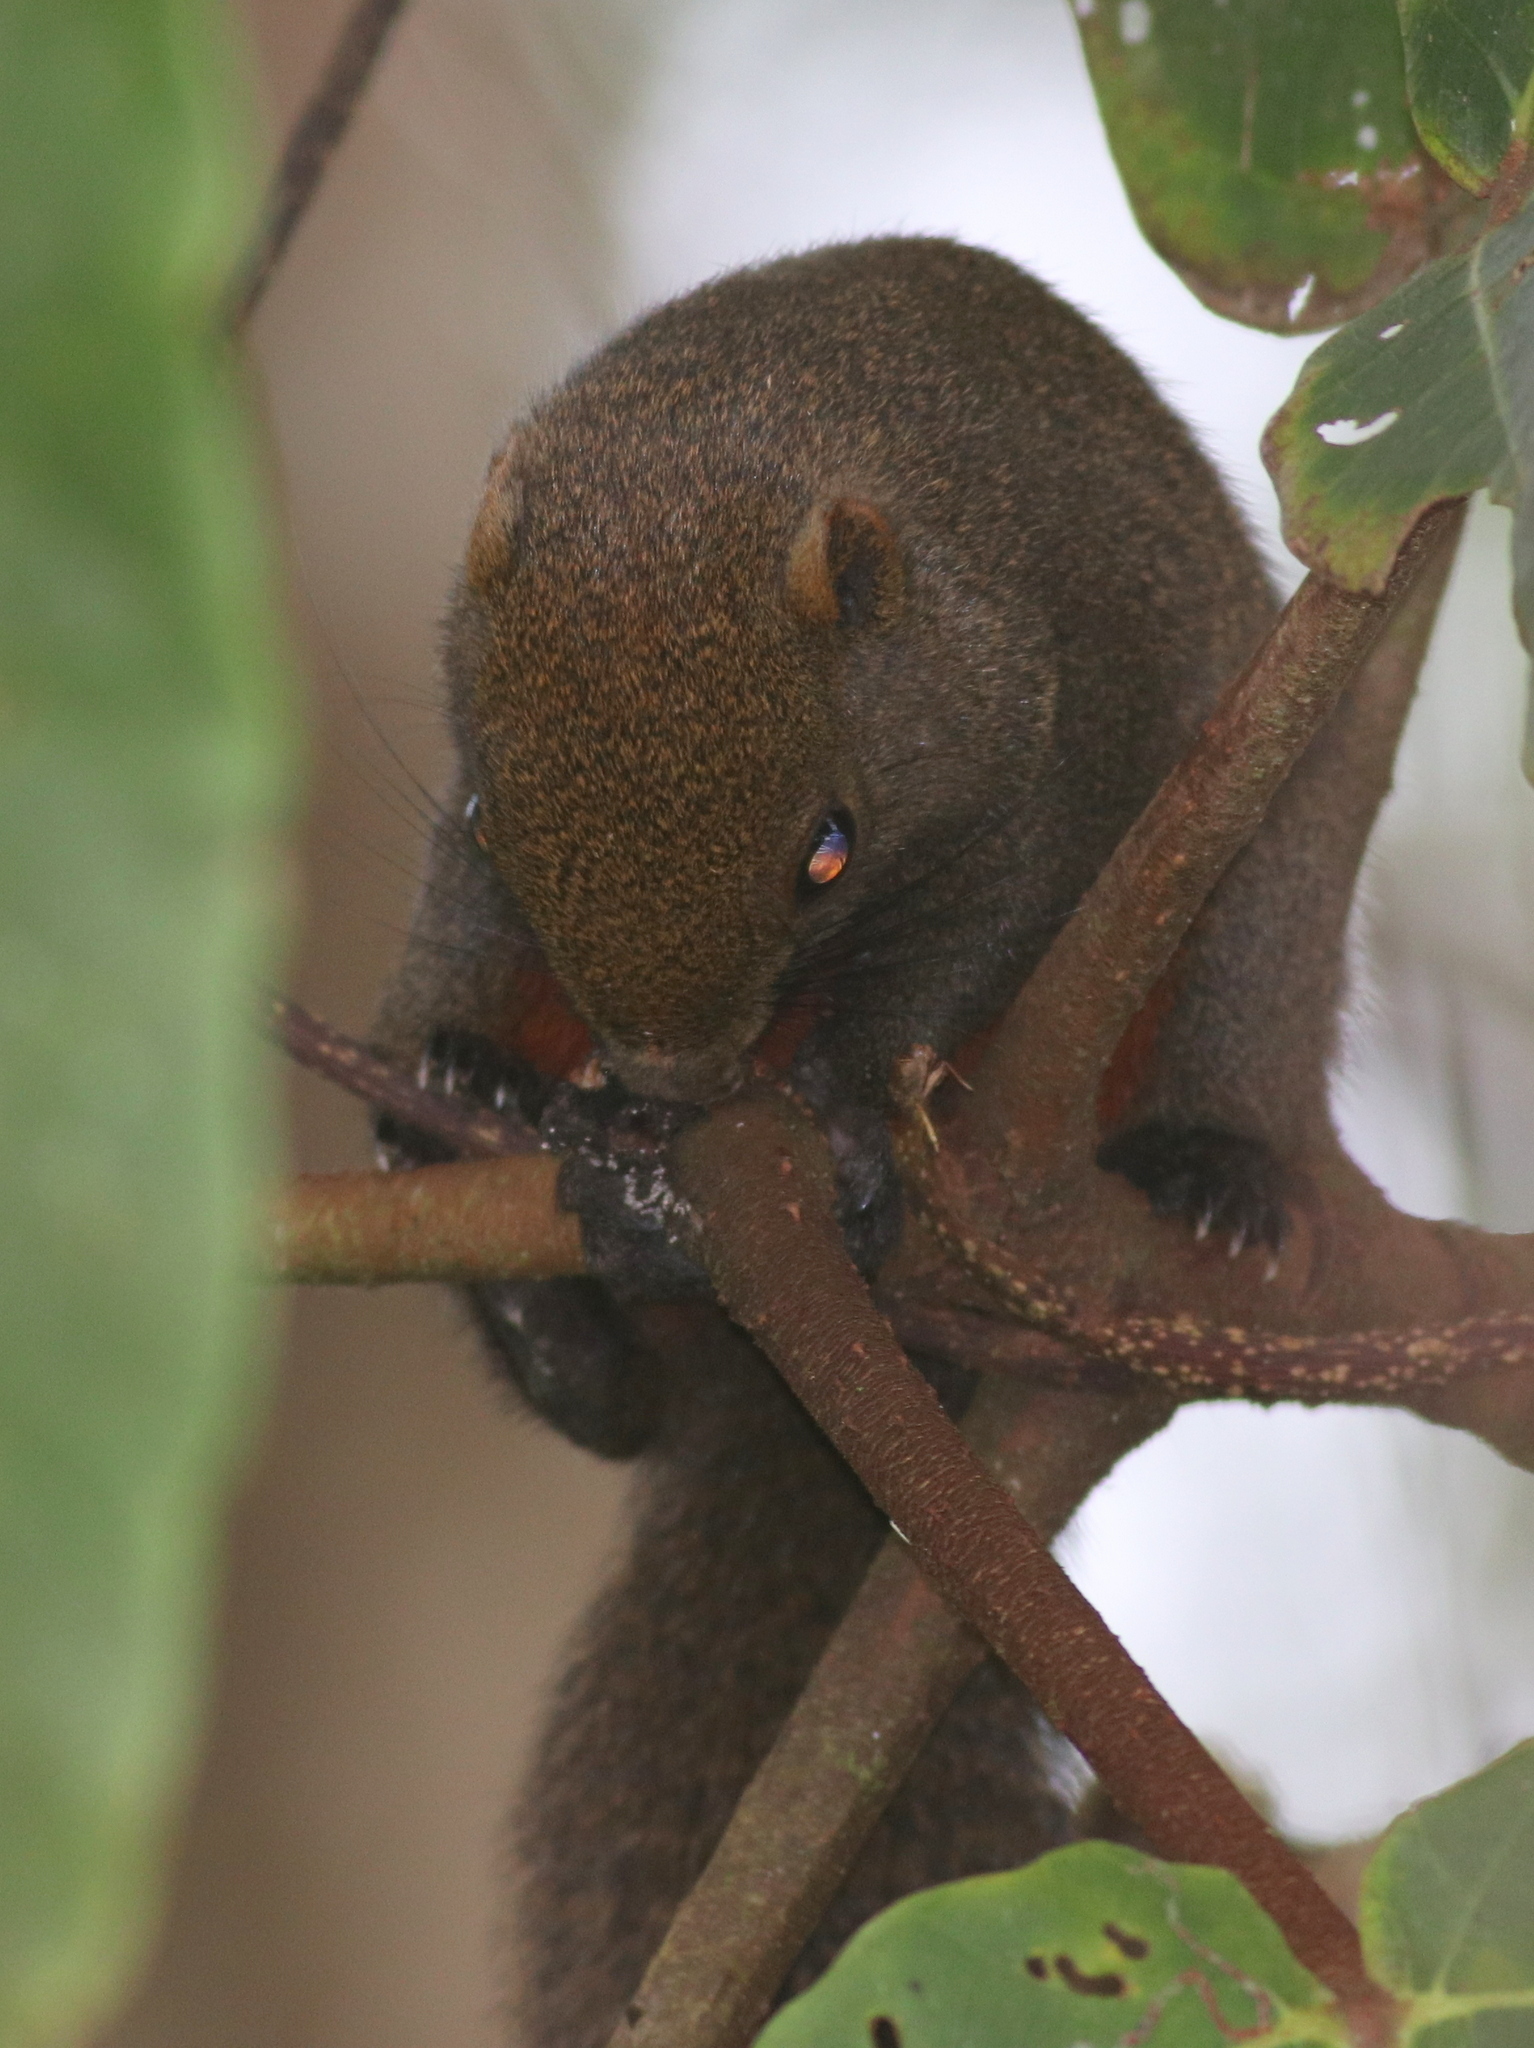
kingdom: Animalia
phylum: Chordata
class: Mammalia
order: Rodentia
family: Sciuridae
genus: Callosciurus
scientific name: Callosciurus erythraeus
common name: Pallas's squirrel
